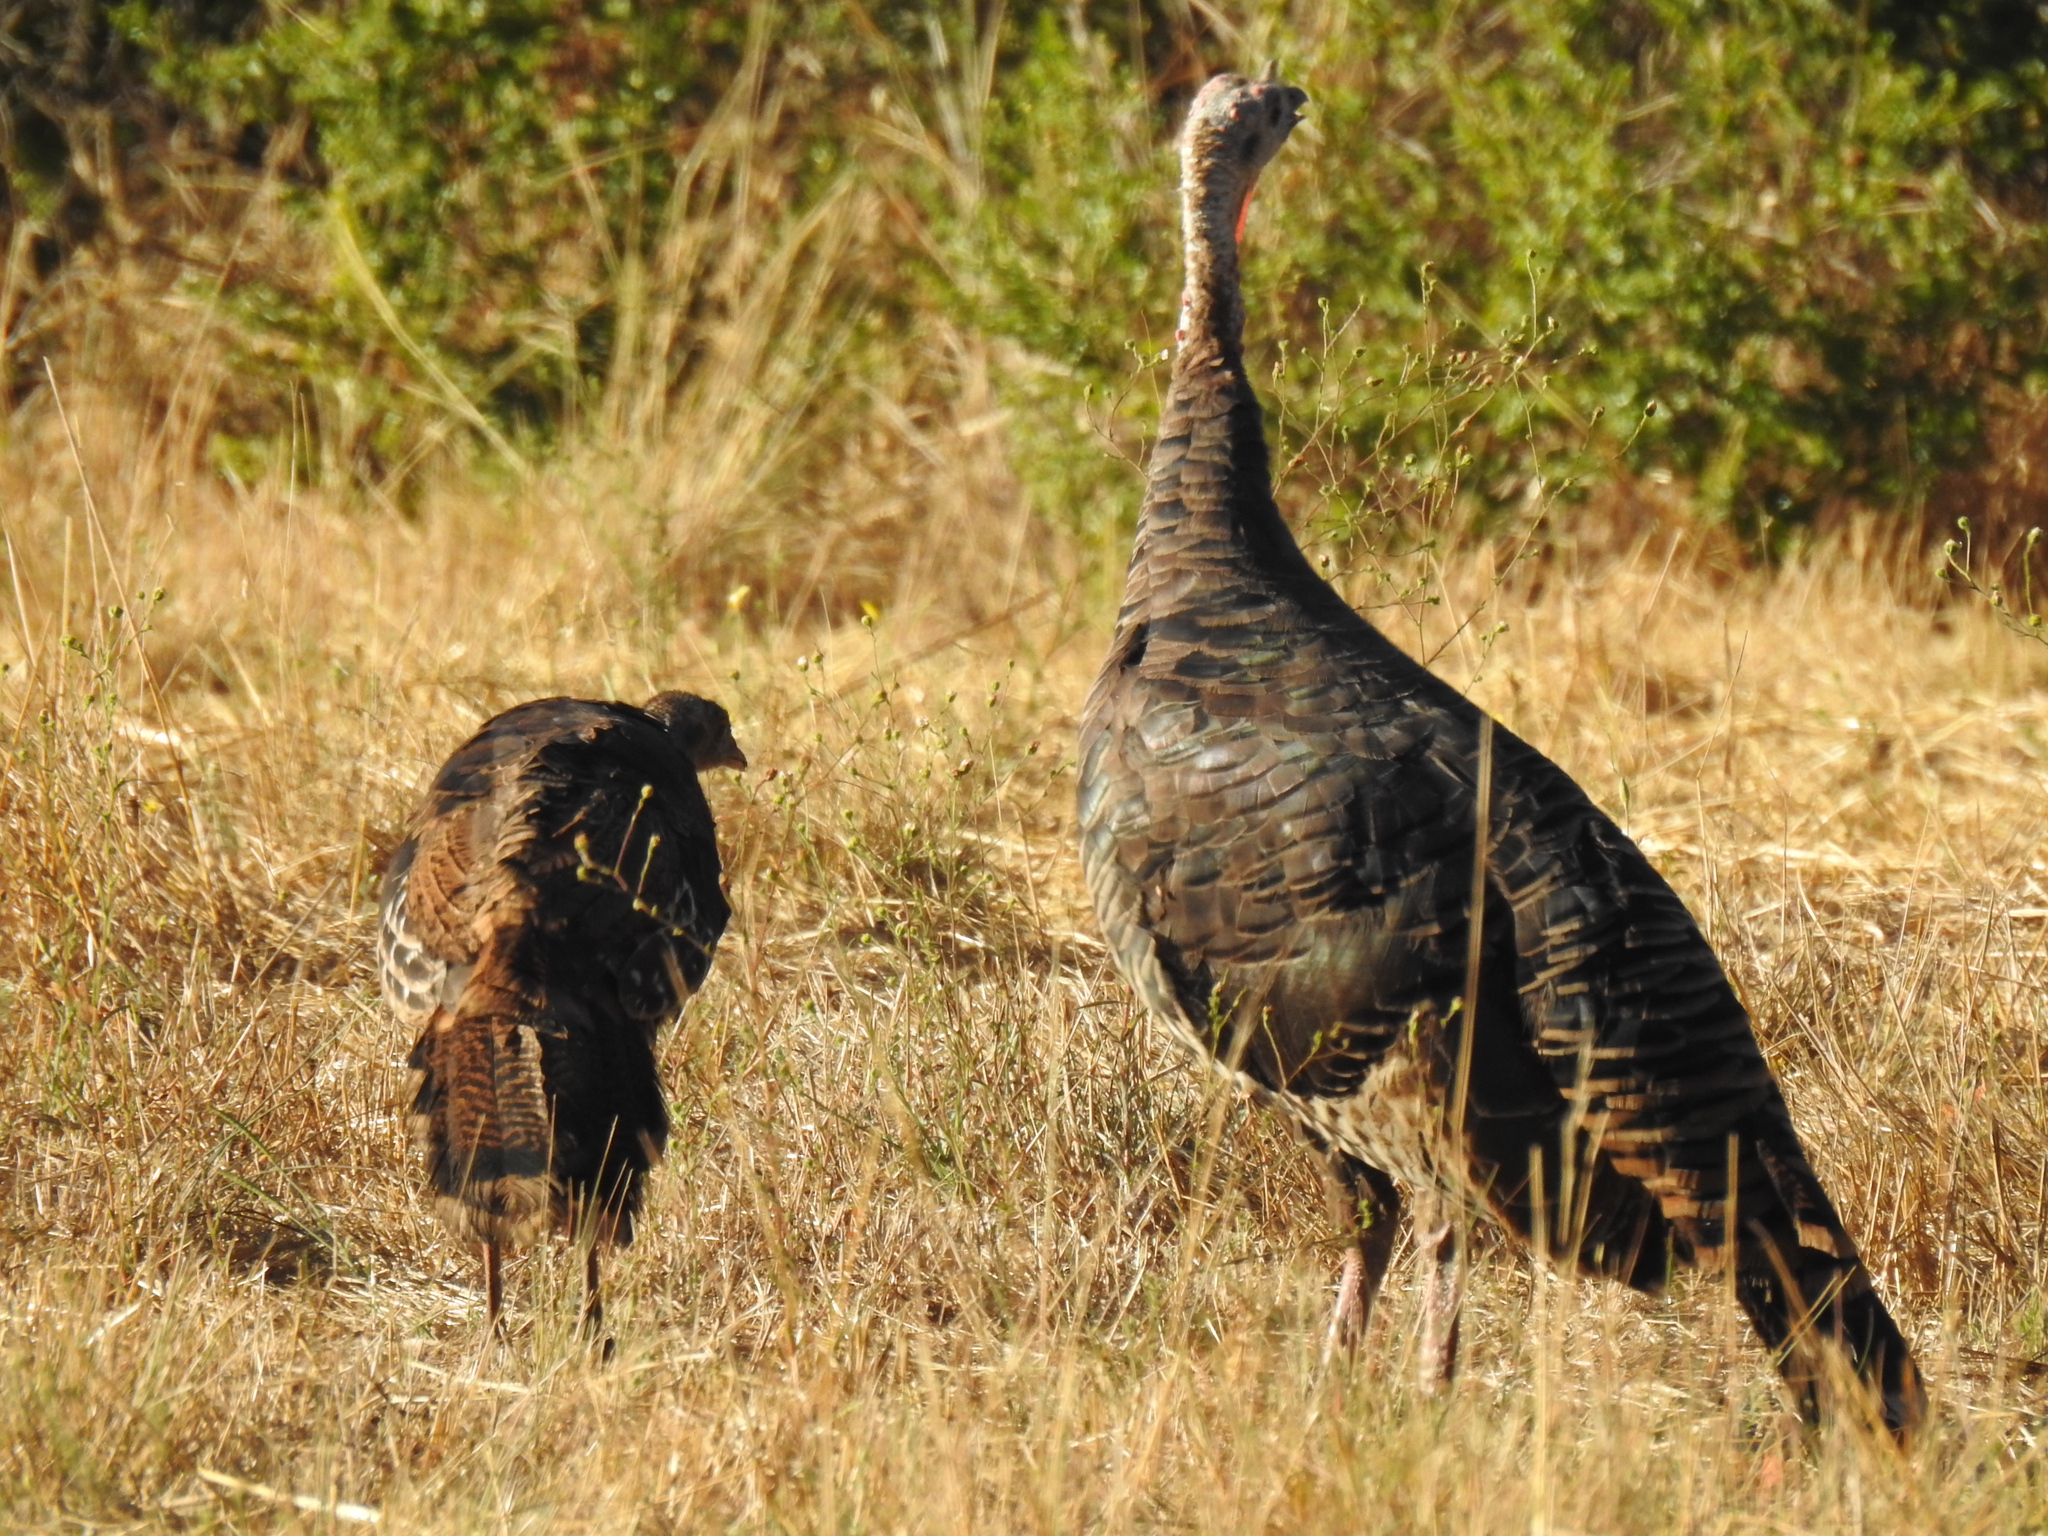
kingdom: Animalia
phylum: Chordata
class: Aves
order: Galliformes
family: Phasianidae
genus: Meleagris
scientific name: Meleagris gallopavo
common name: Wild turkey
